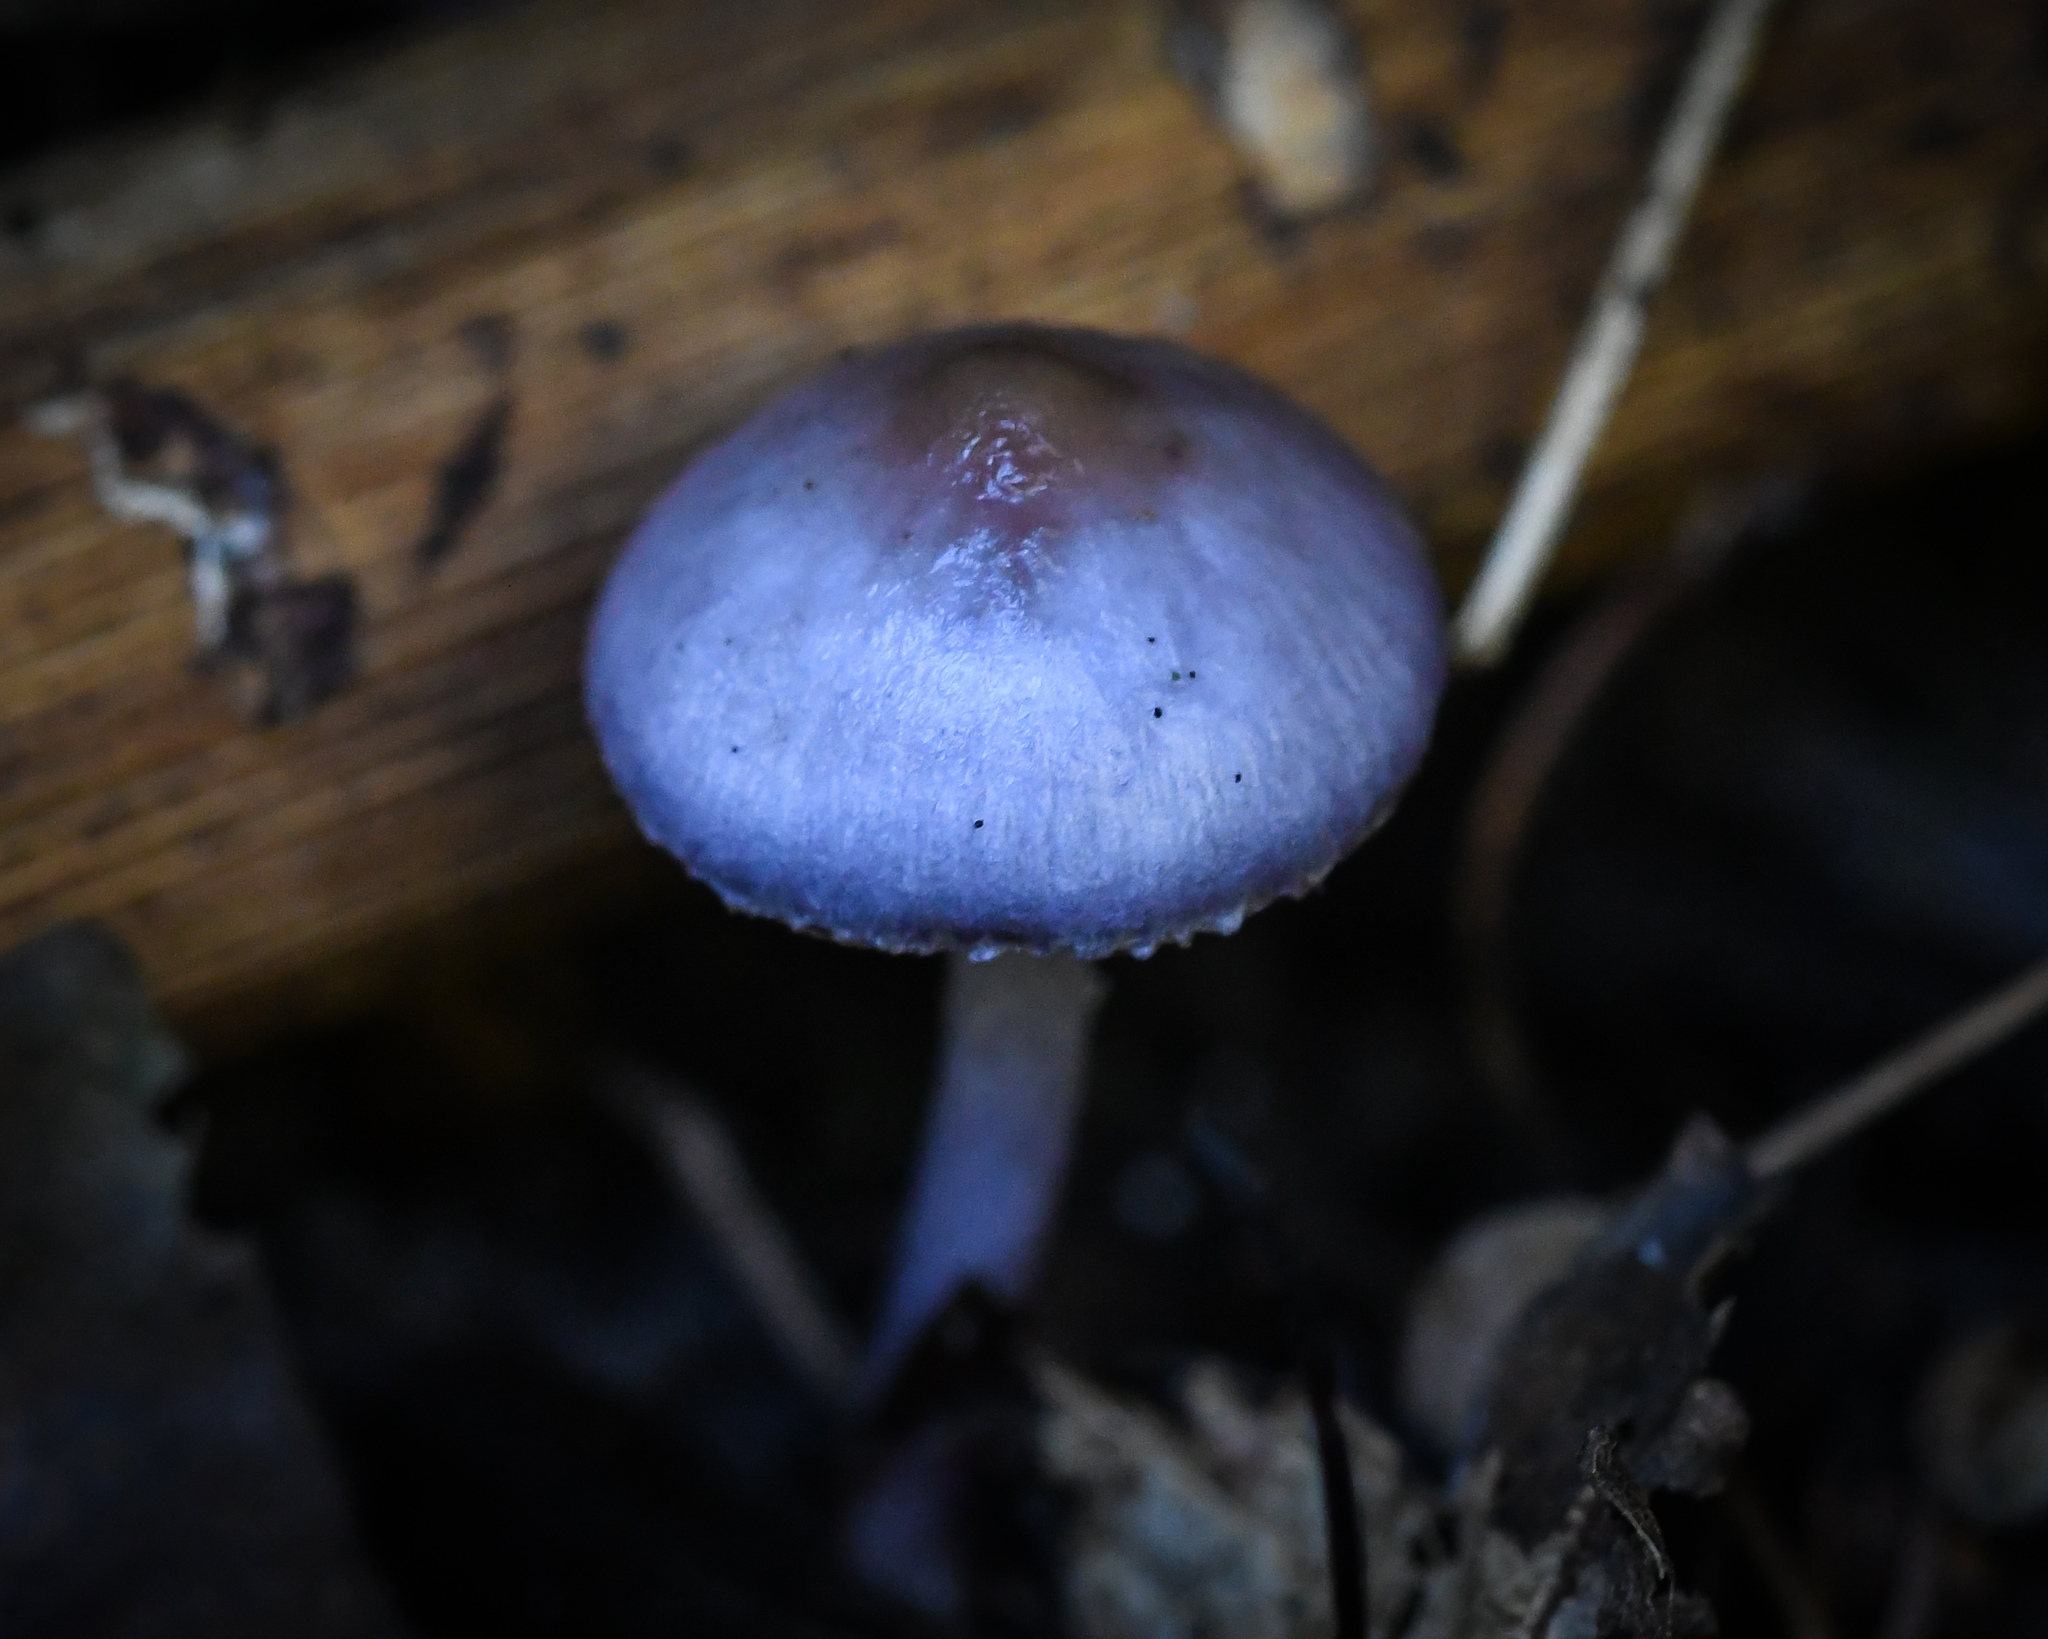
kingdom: Fungi
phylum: Basidiomycota
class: Agaricomycetes
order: Agaricales
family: Inocybaceae
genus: Inocybe
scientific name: Inocybe geophylla
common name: White fibrecap
